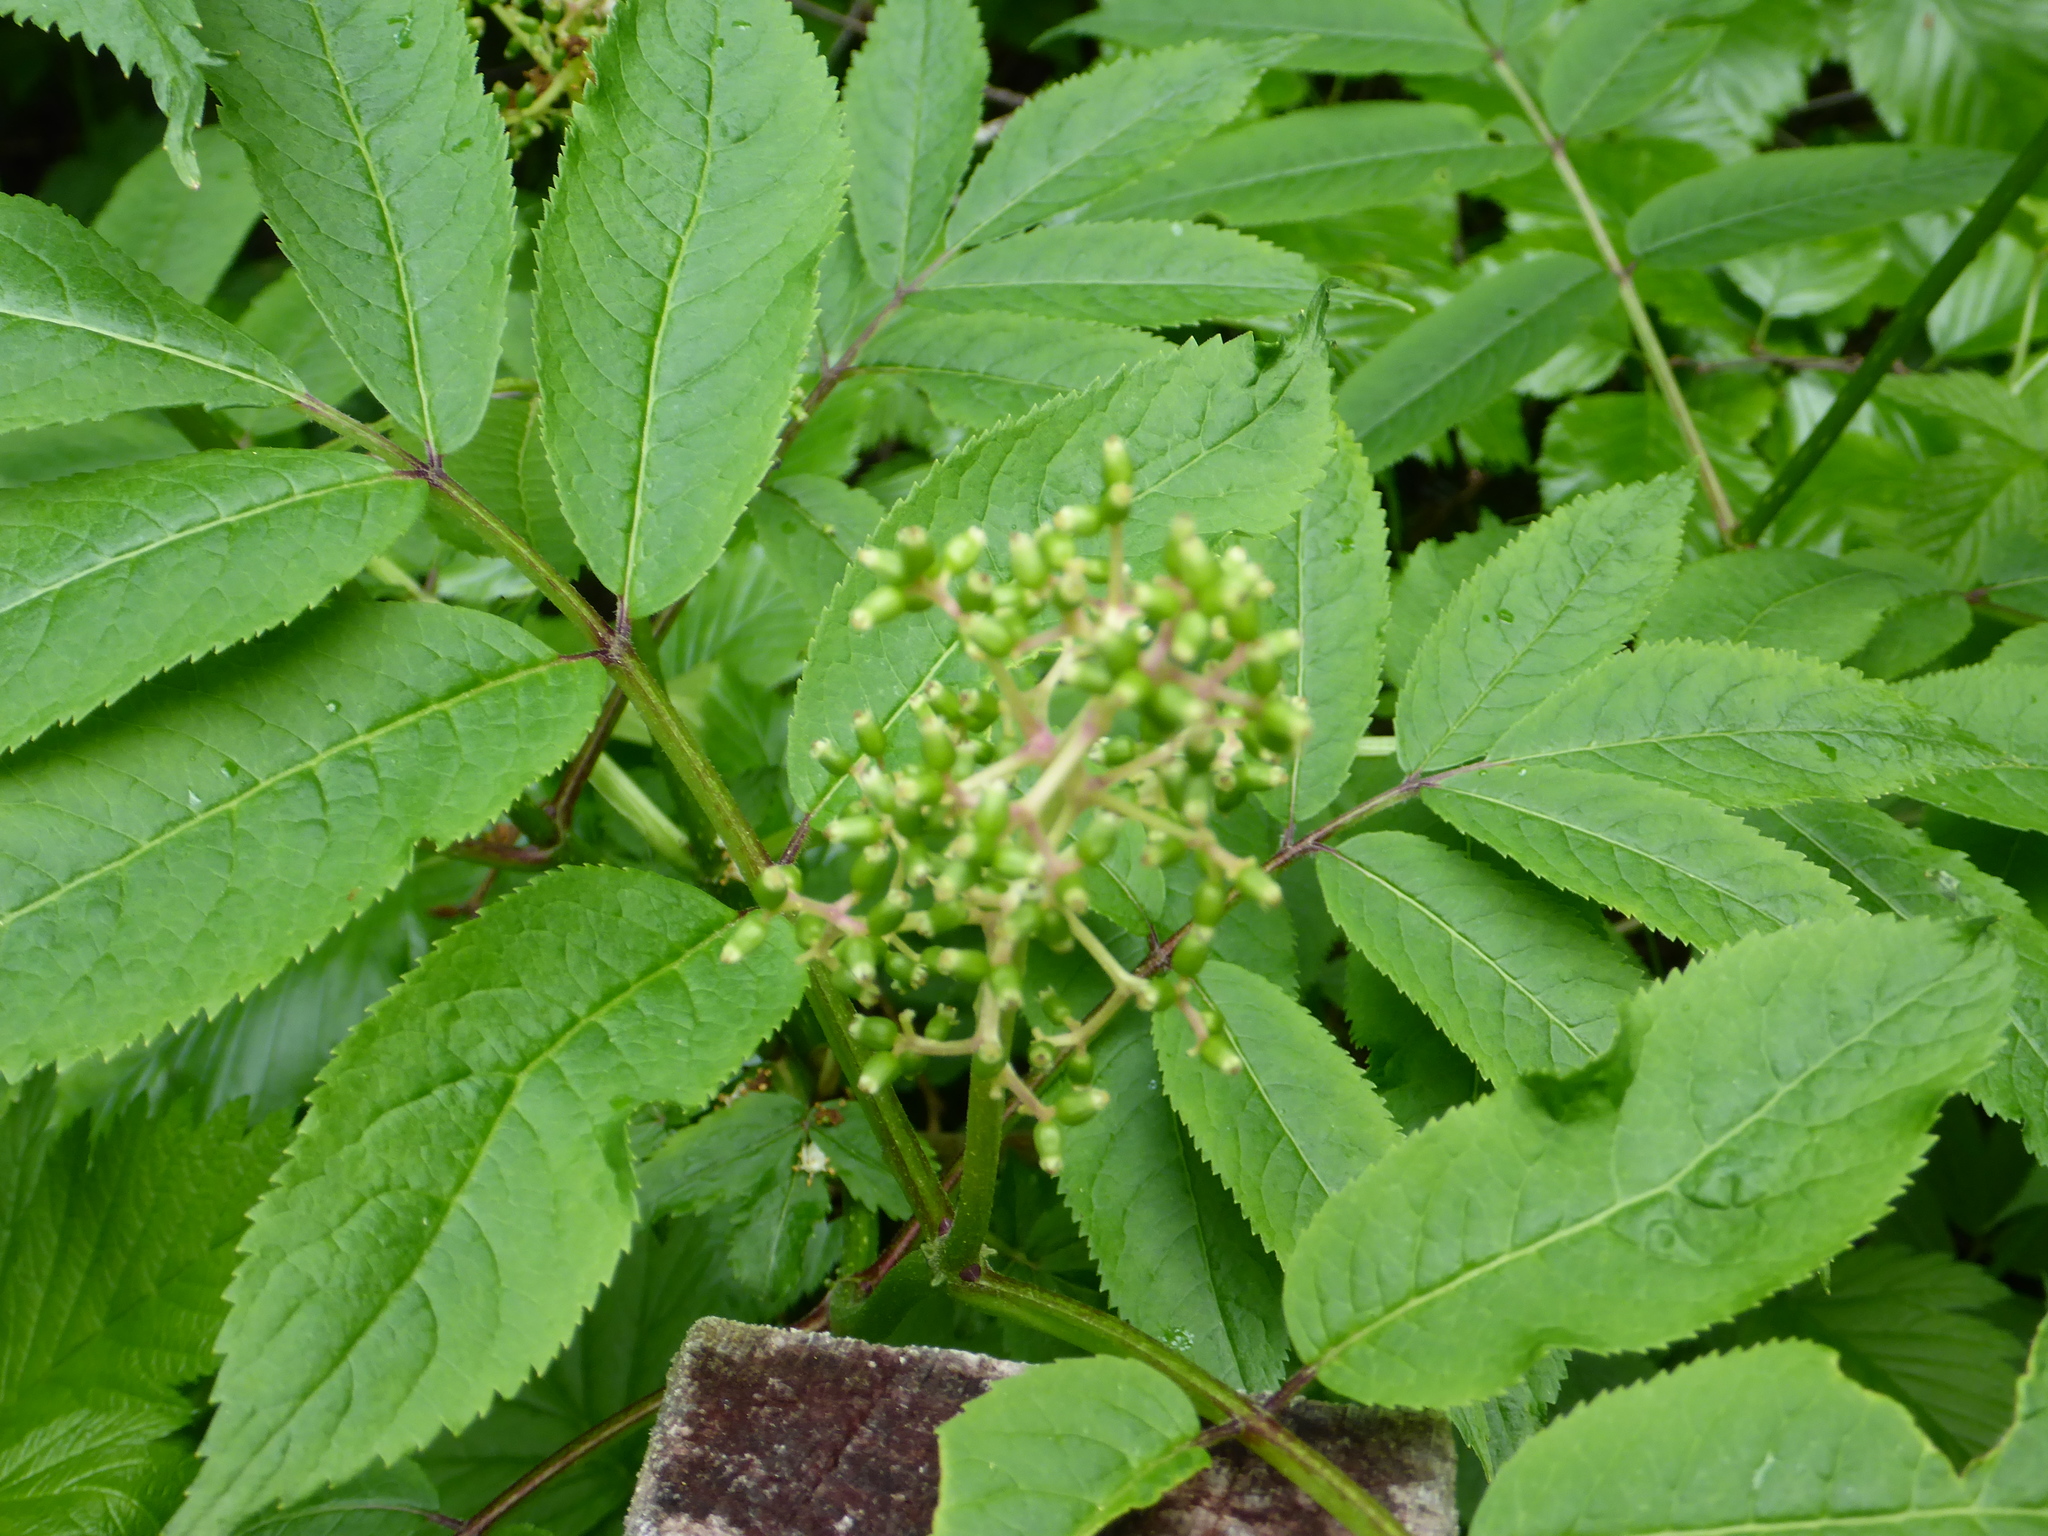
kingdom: Plantae
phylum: Tracheophyta
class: Magnoliopsida
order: Dipsacales
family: Viburnaceae
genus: Sambucus
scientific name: Sambucus racemosa
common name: Red-berried elder
